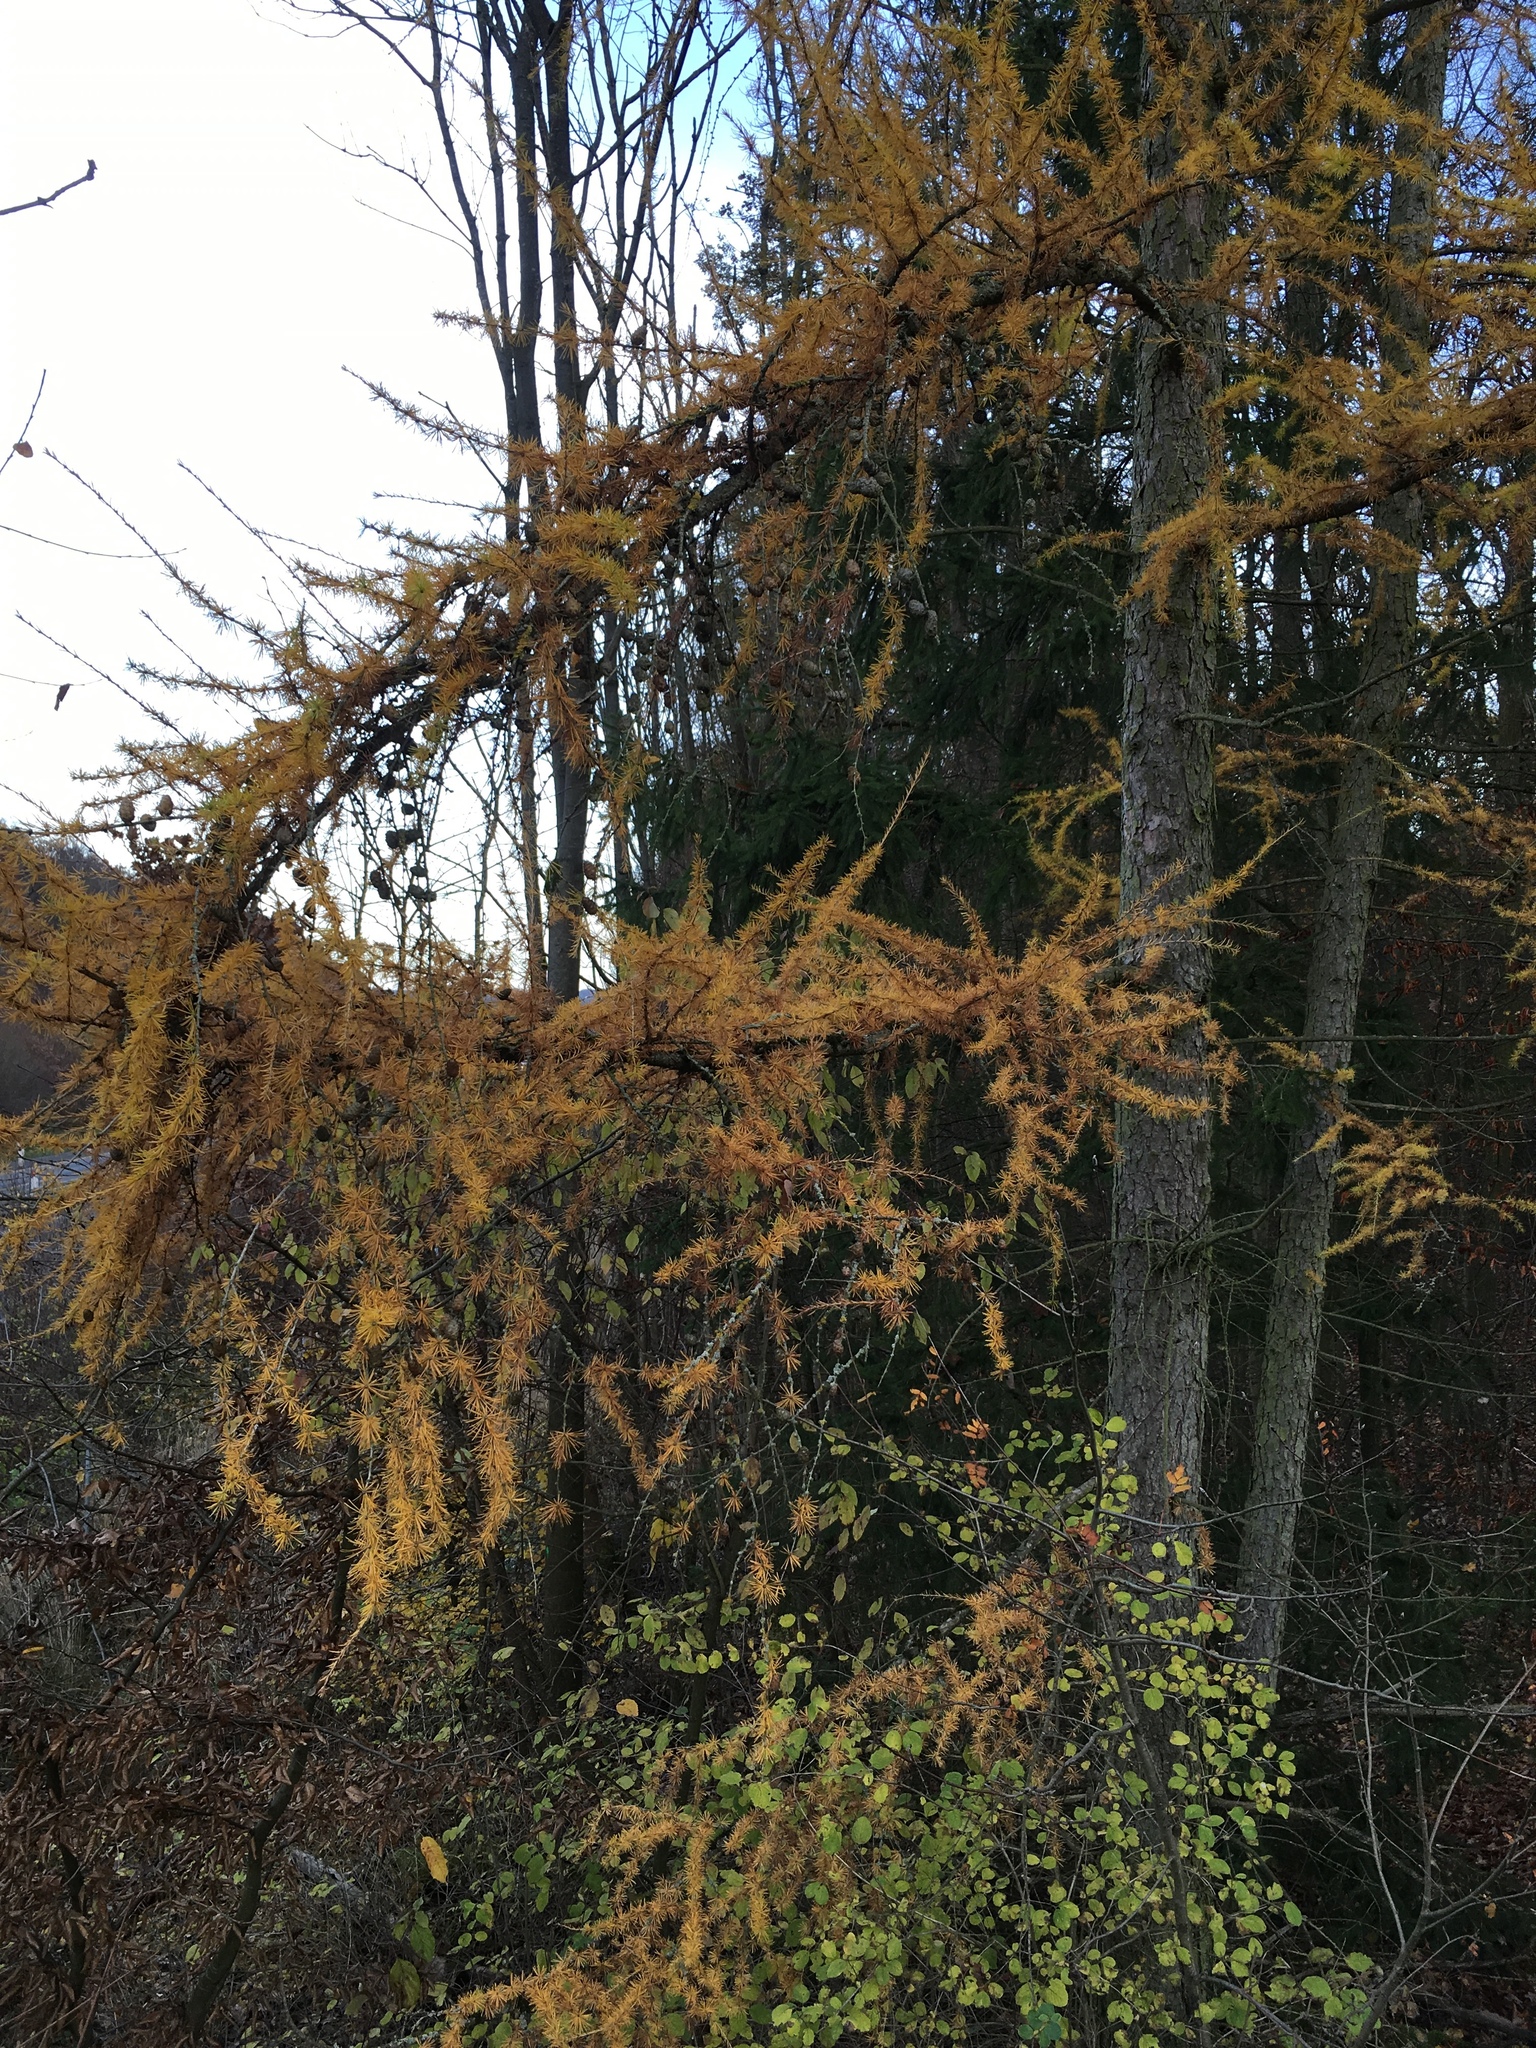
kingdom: Plantae
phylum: Tracheophyta
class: Pinopsida
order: Pinales
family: Pinaceae
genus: Larix
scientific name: Larix decidua
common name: European larch
